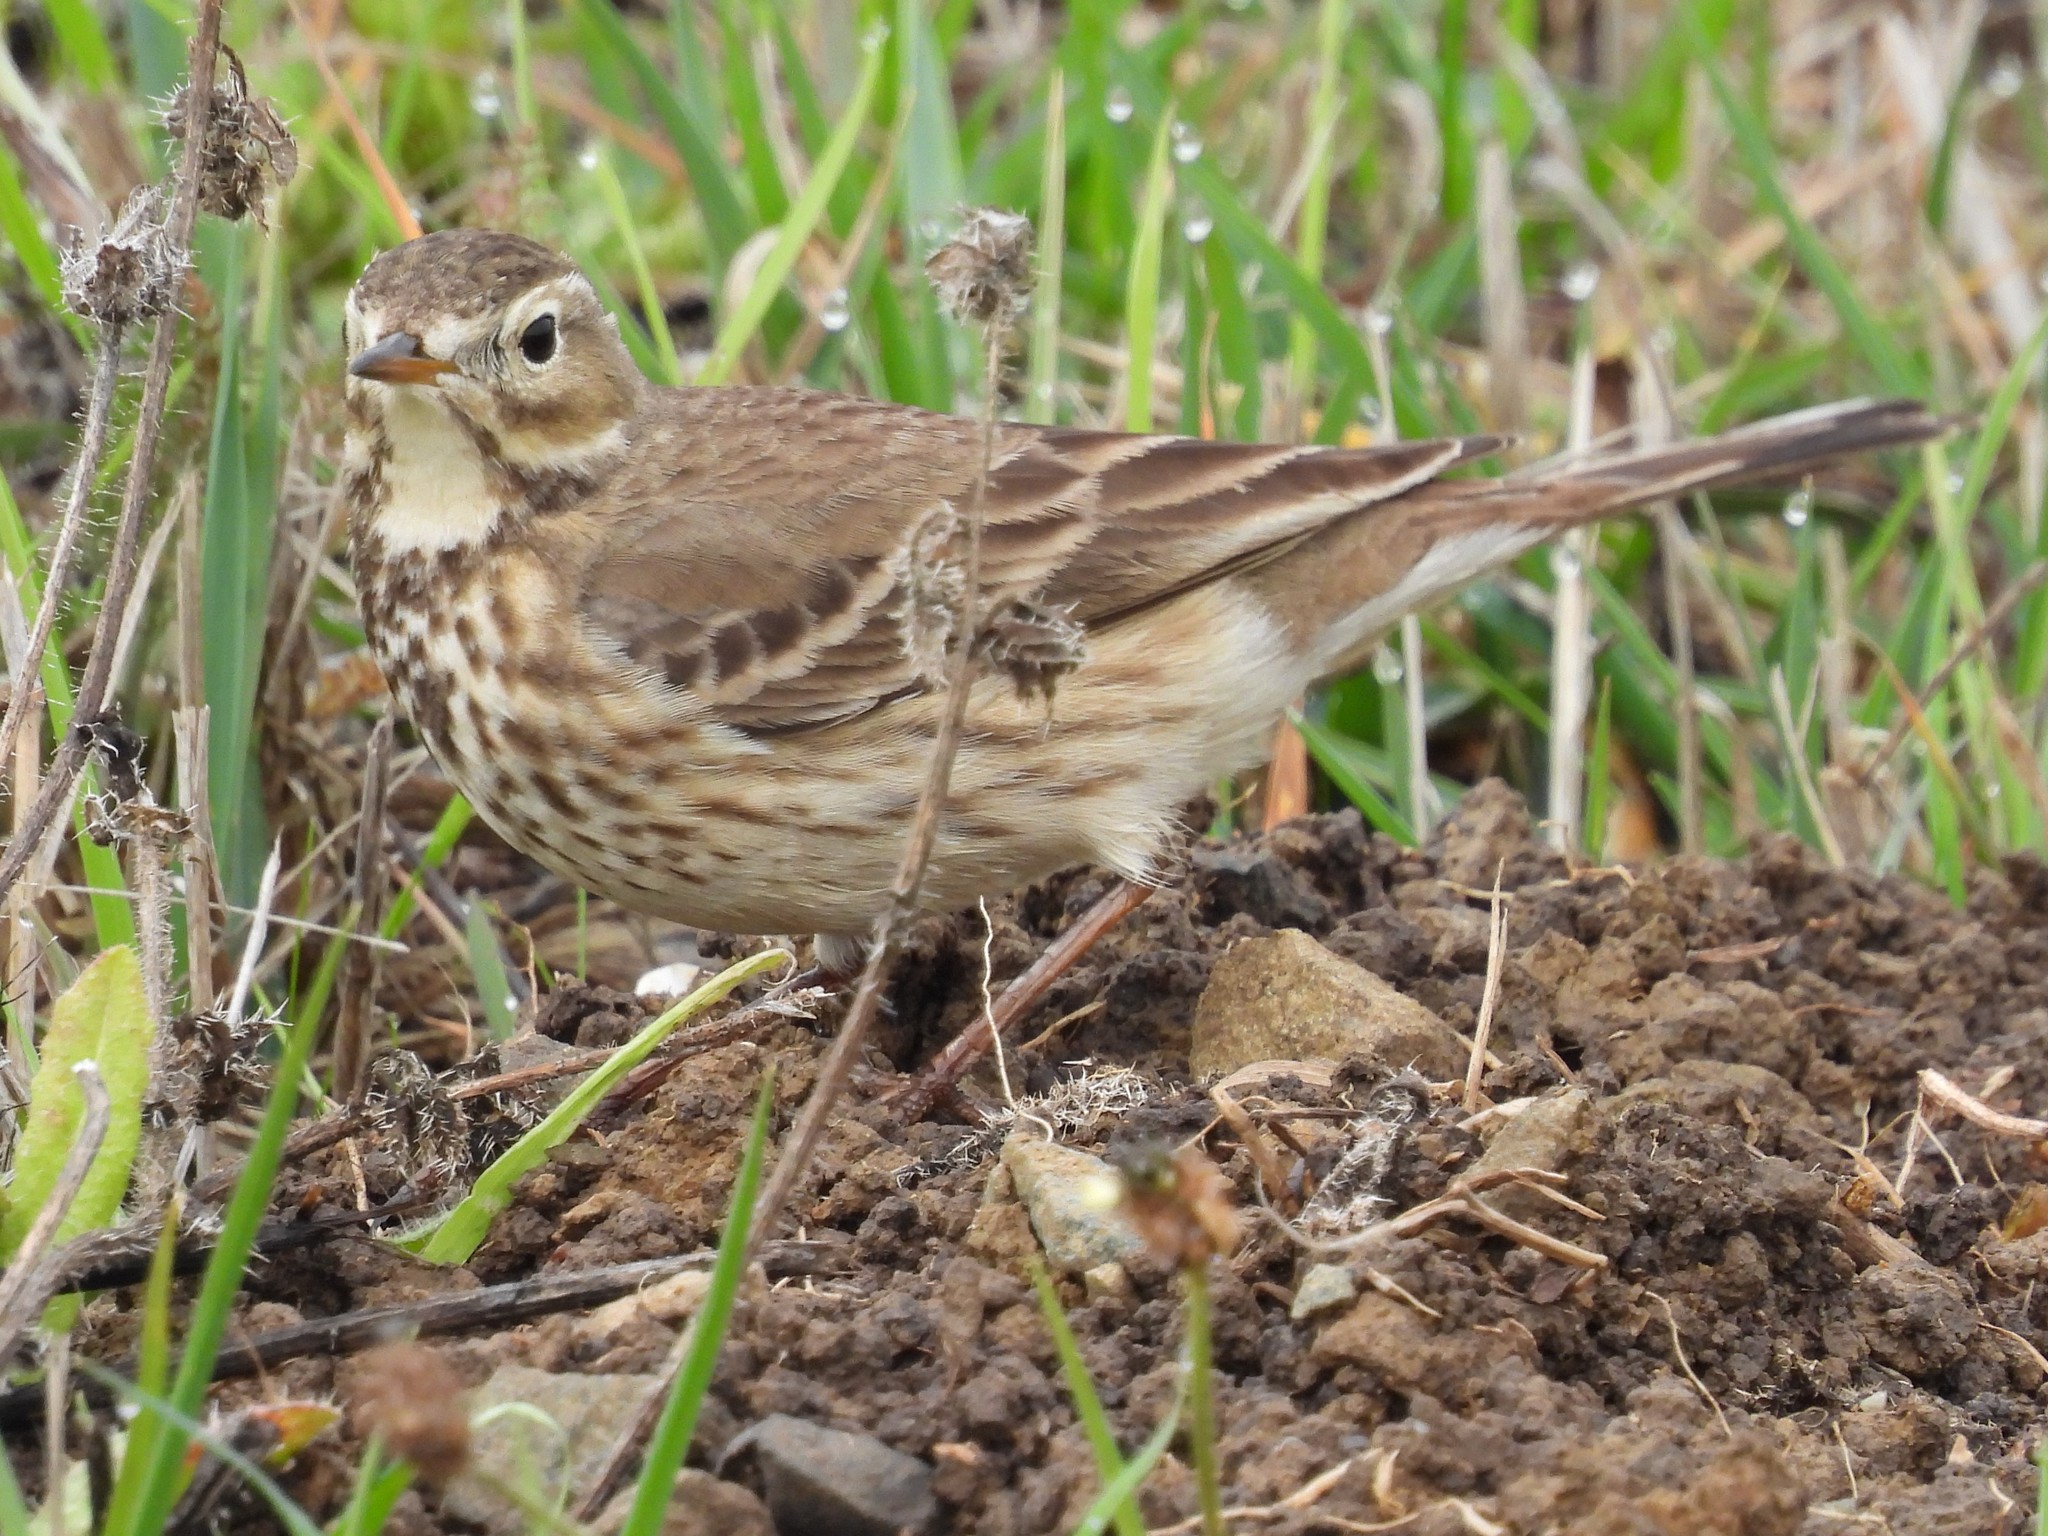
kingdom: Animalia
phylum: Chordata
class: Aves
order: Passeriformes
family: Motacillidae
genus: Anthus
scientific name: Anthus rubescens
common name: Buff-bellied pipit
